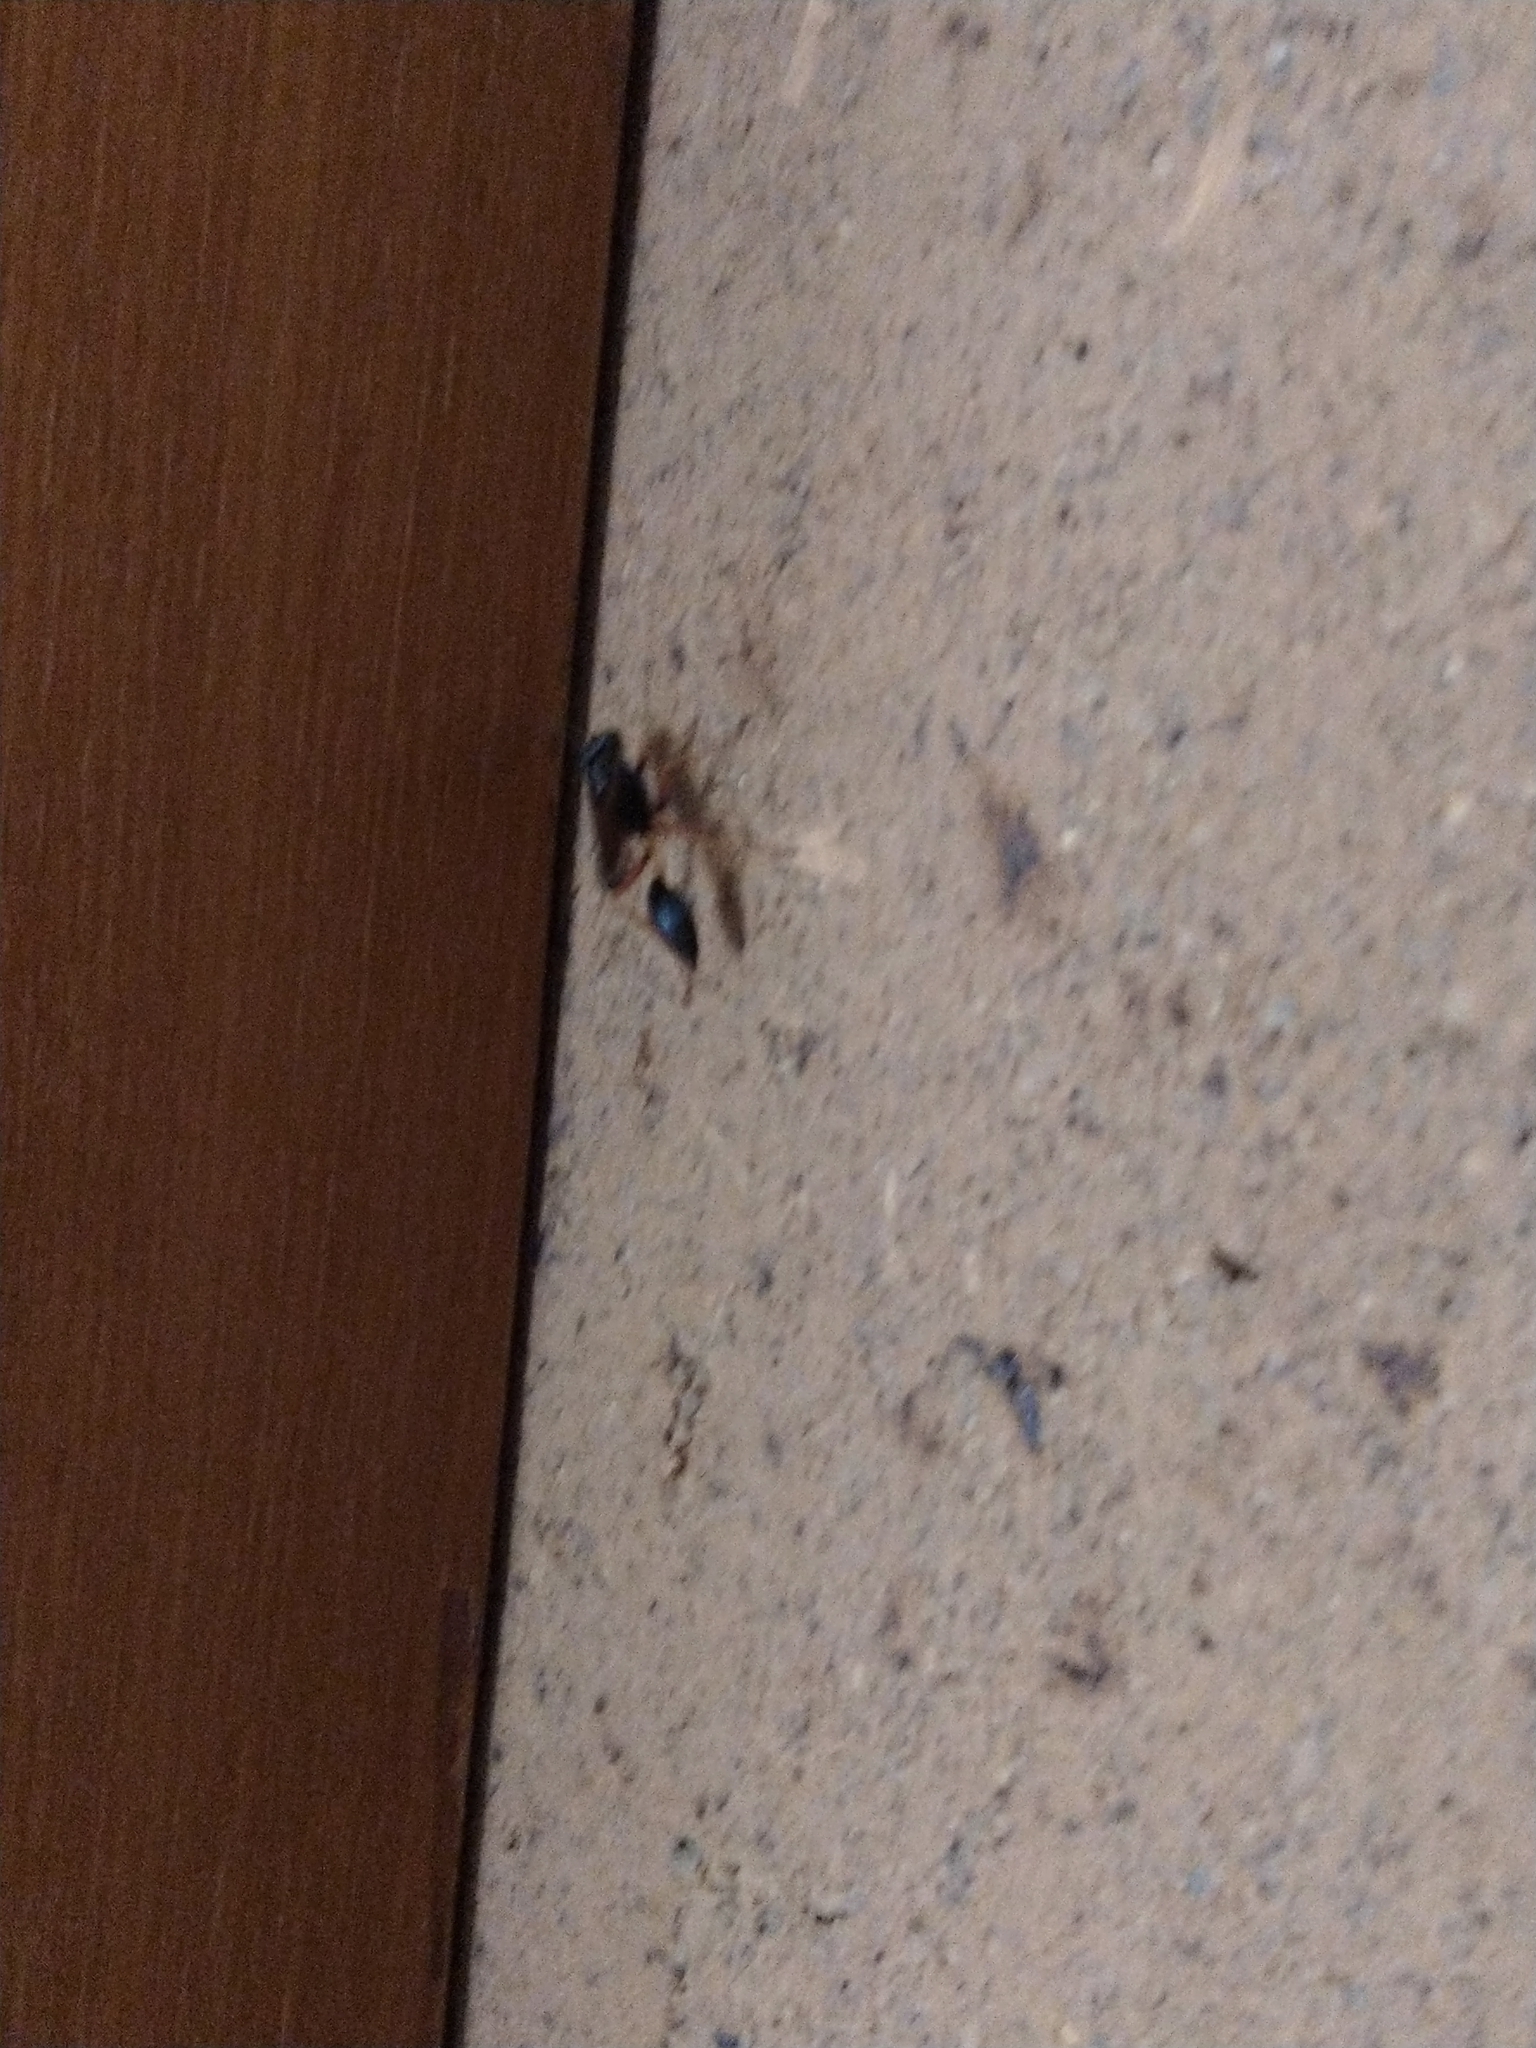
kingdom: Animalia
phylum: Arthropoda
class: Insecta
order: Hymenoptera
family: Sphecidae
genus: Sceliphron
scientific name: Sceliphron coromandelicum
